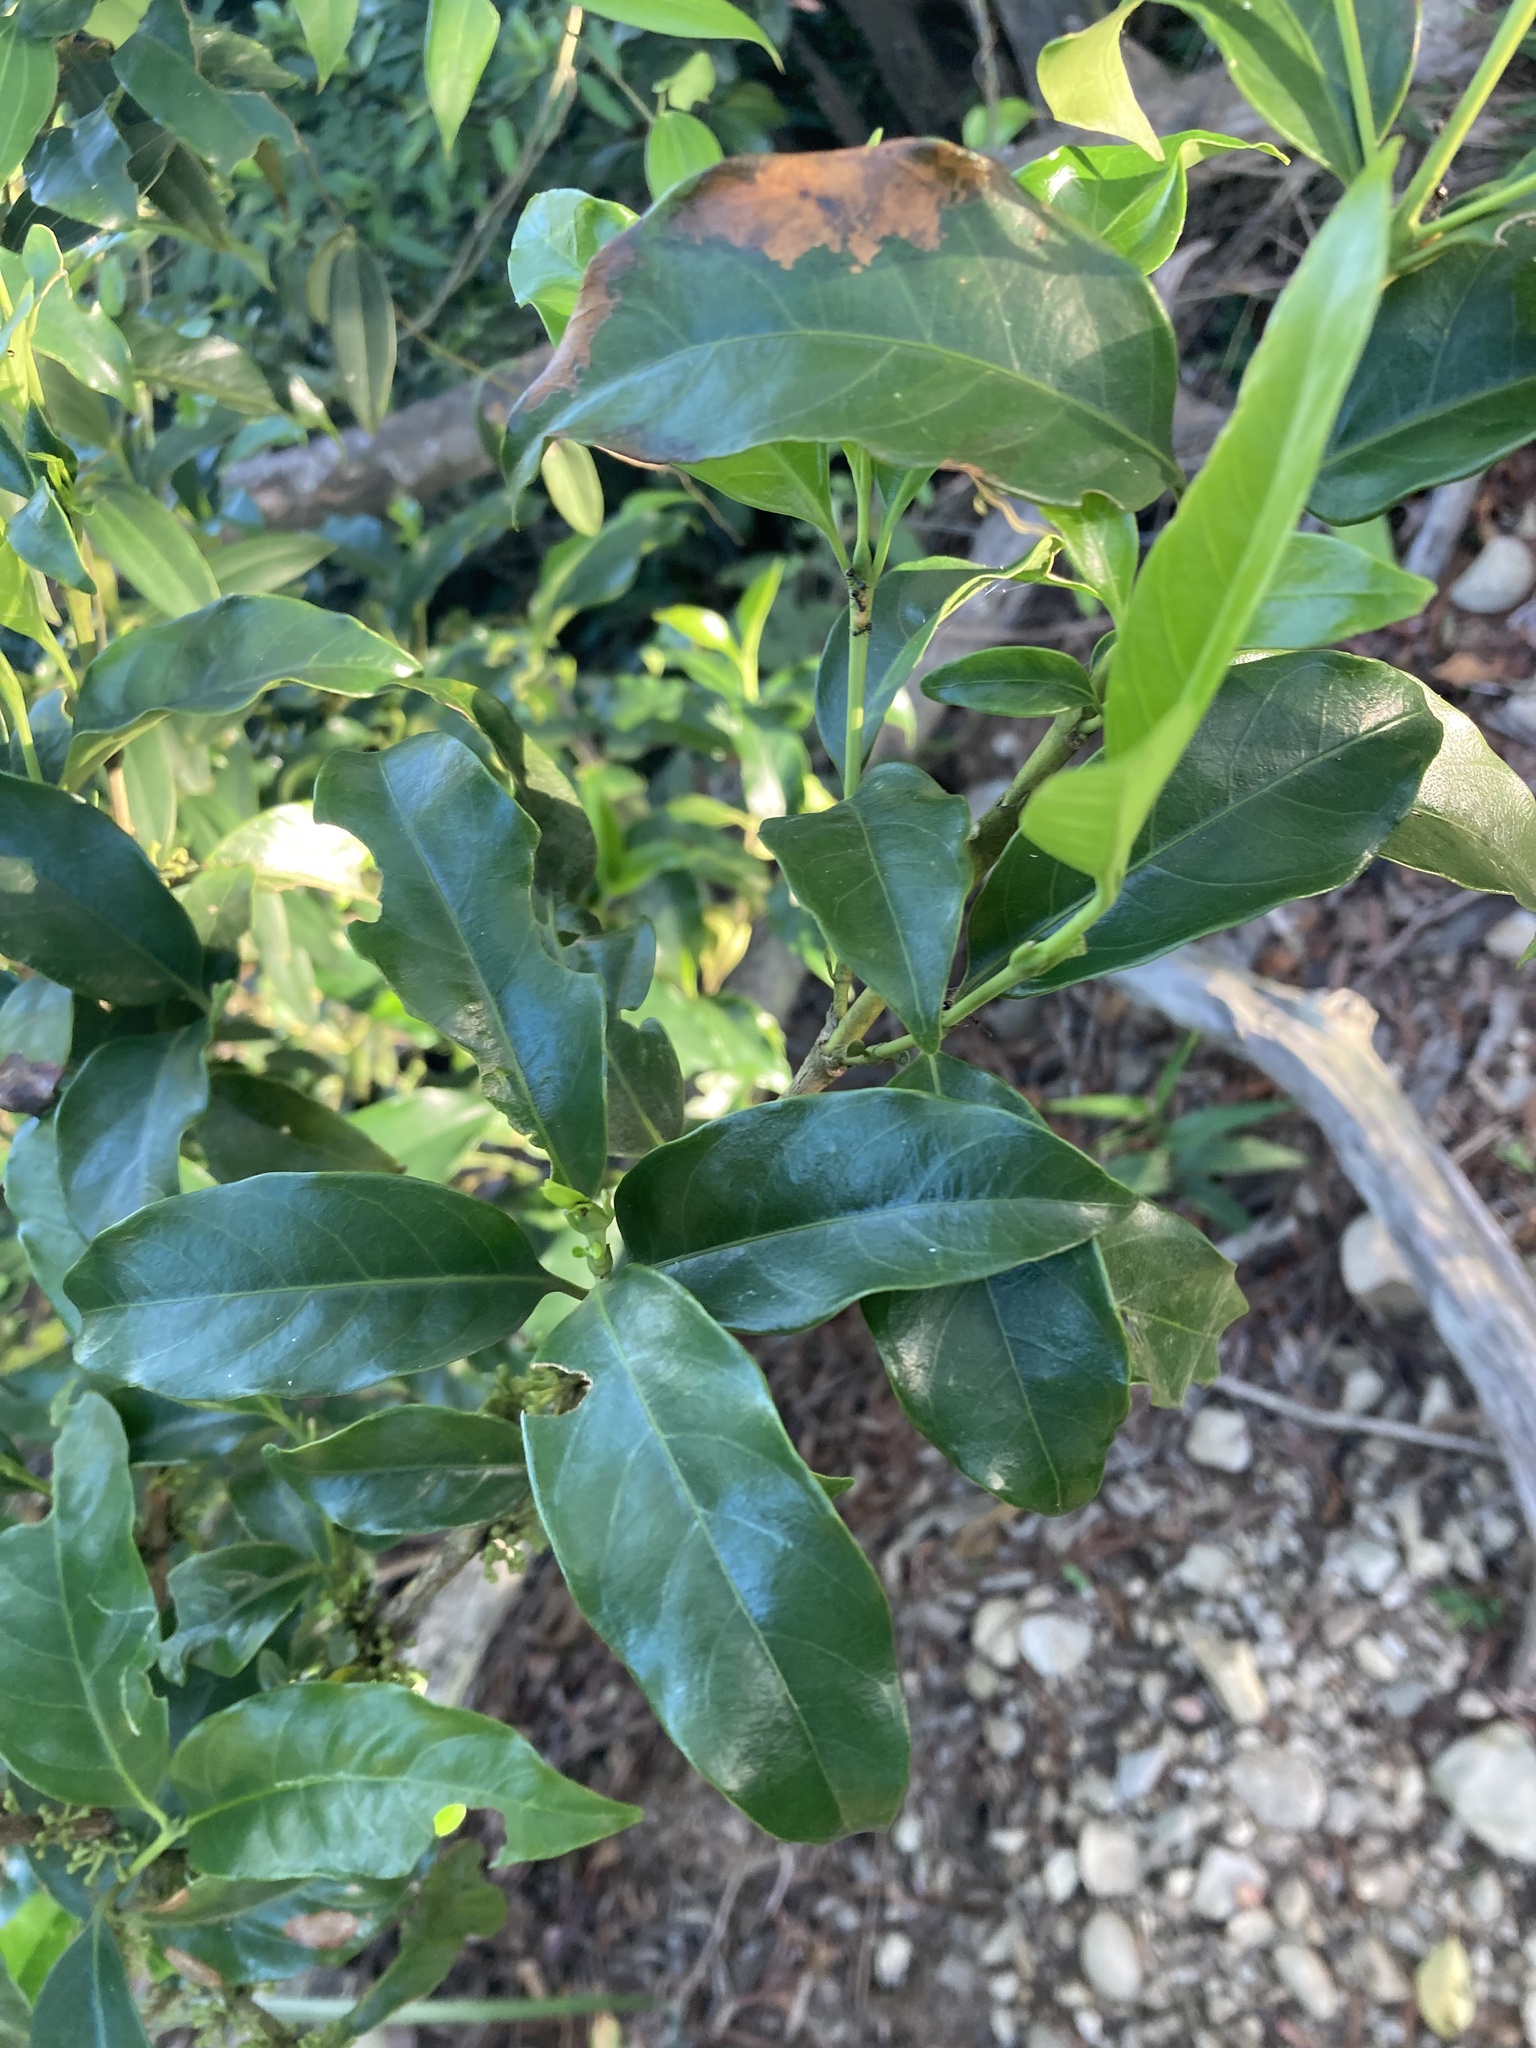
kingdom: Plantae
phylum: Tracheophyta
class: Magnoliopsida
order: Gentianales
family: Rubiaceae
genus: Diplospora
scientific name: Diplospora dubia
